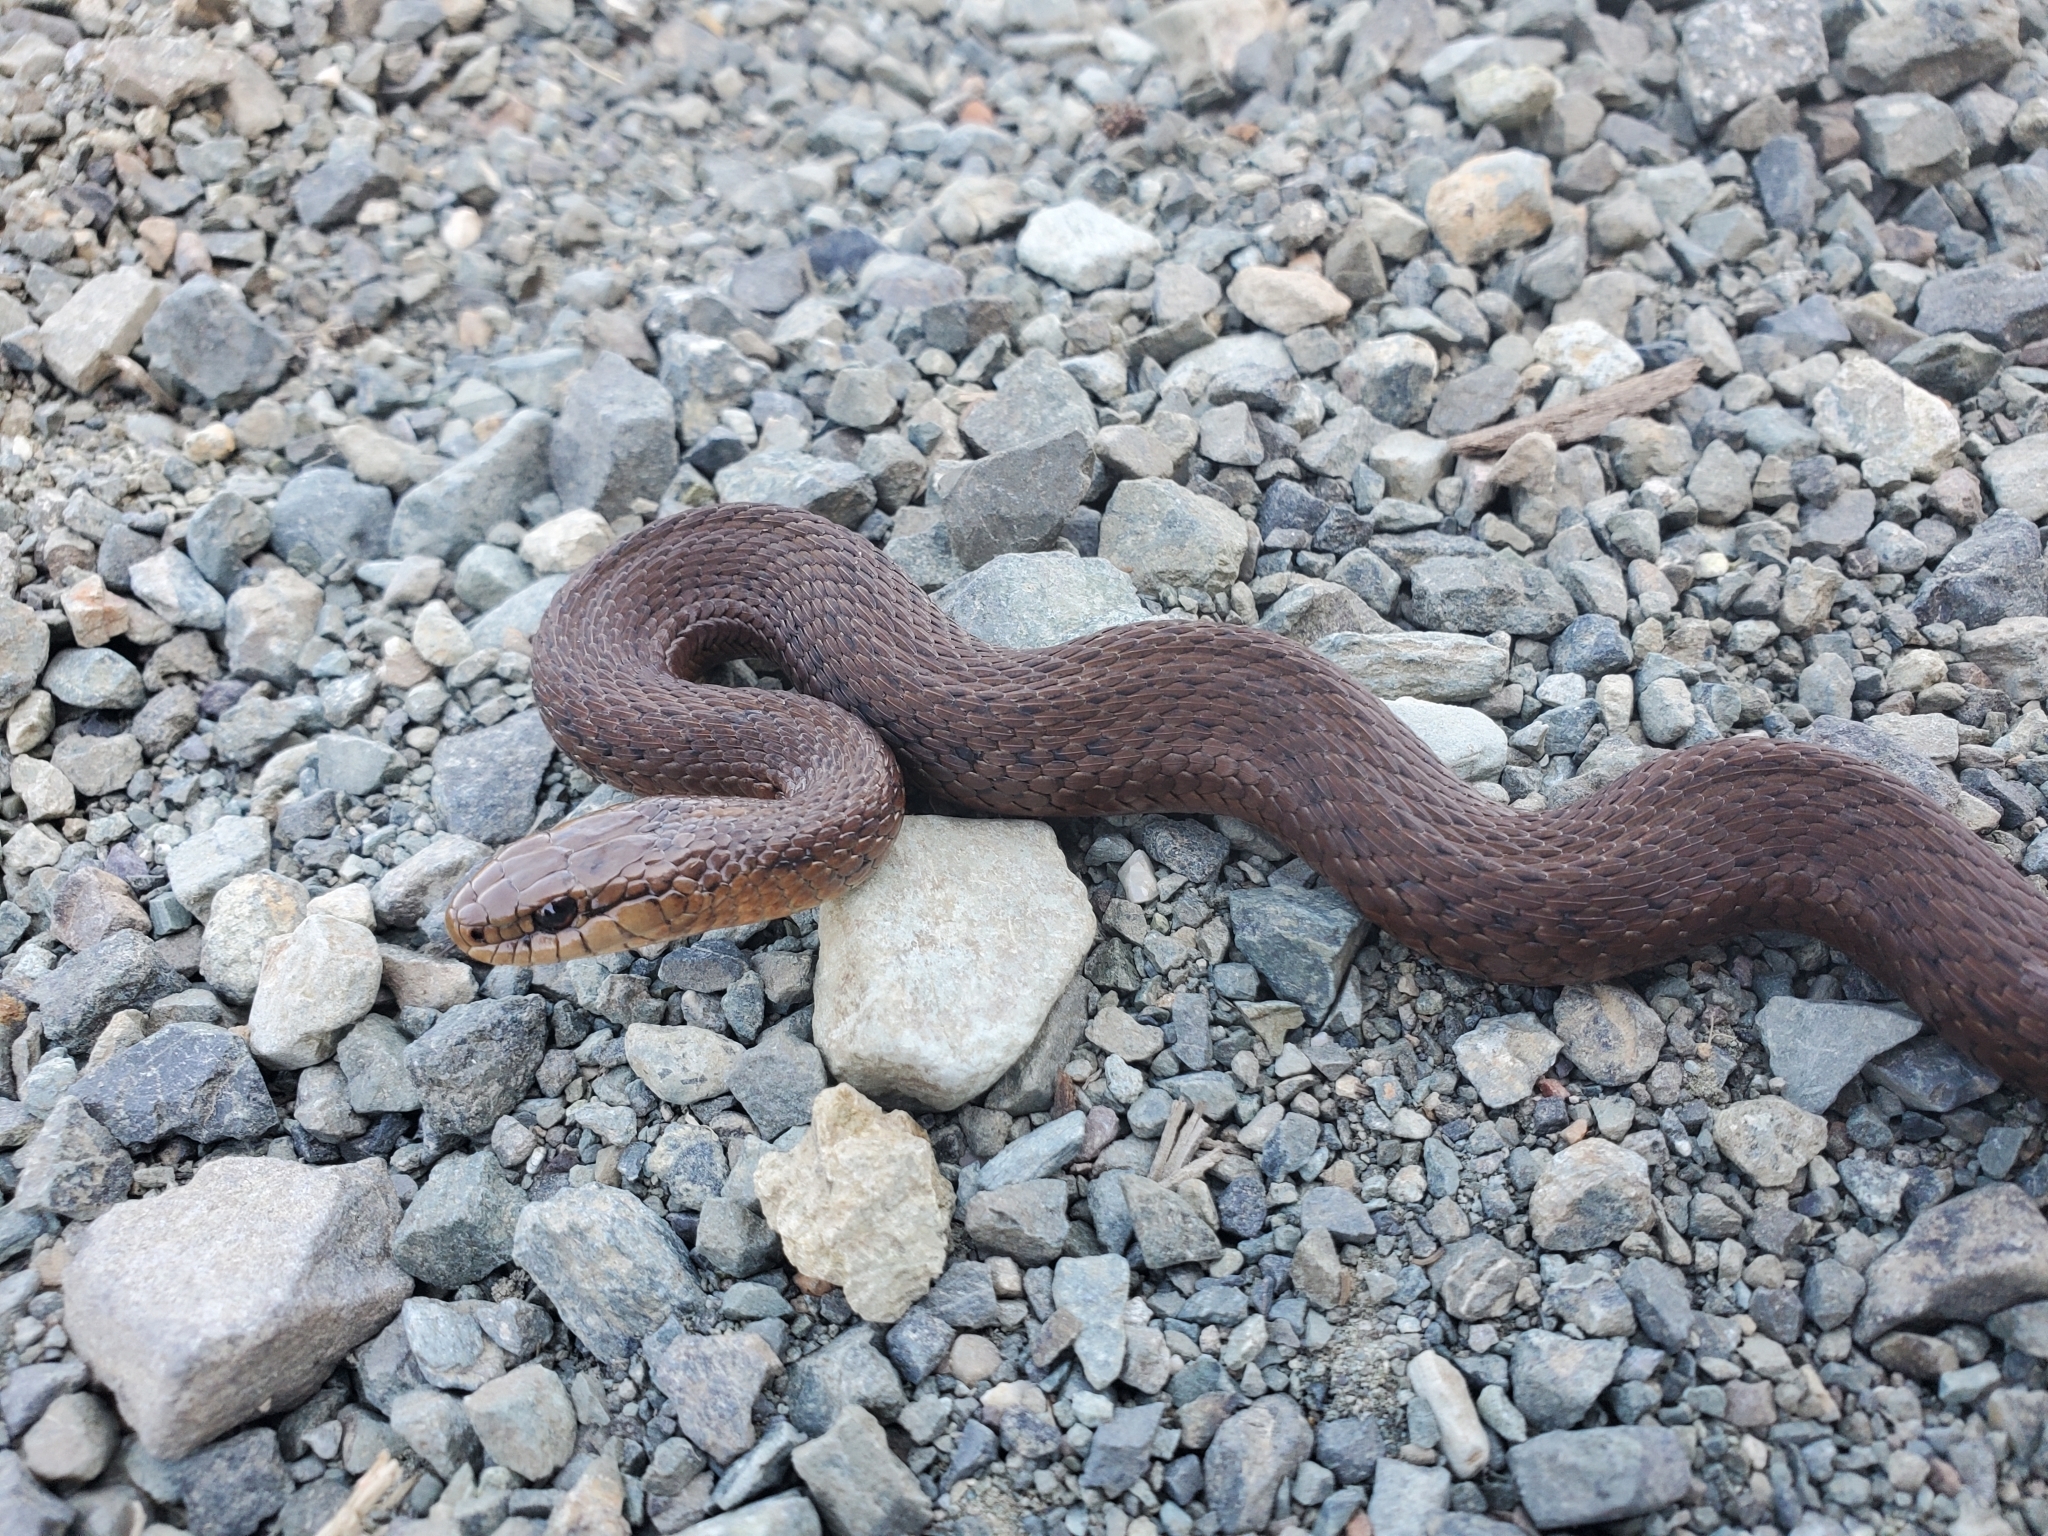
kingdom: Animalia
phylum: Chordata
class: Squamata
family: Colubridae
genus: Thamnophis
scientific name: Thamnophis ordinoides
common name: Northwestern garter snake
